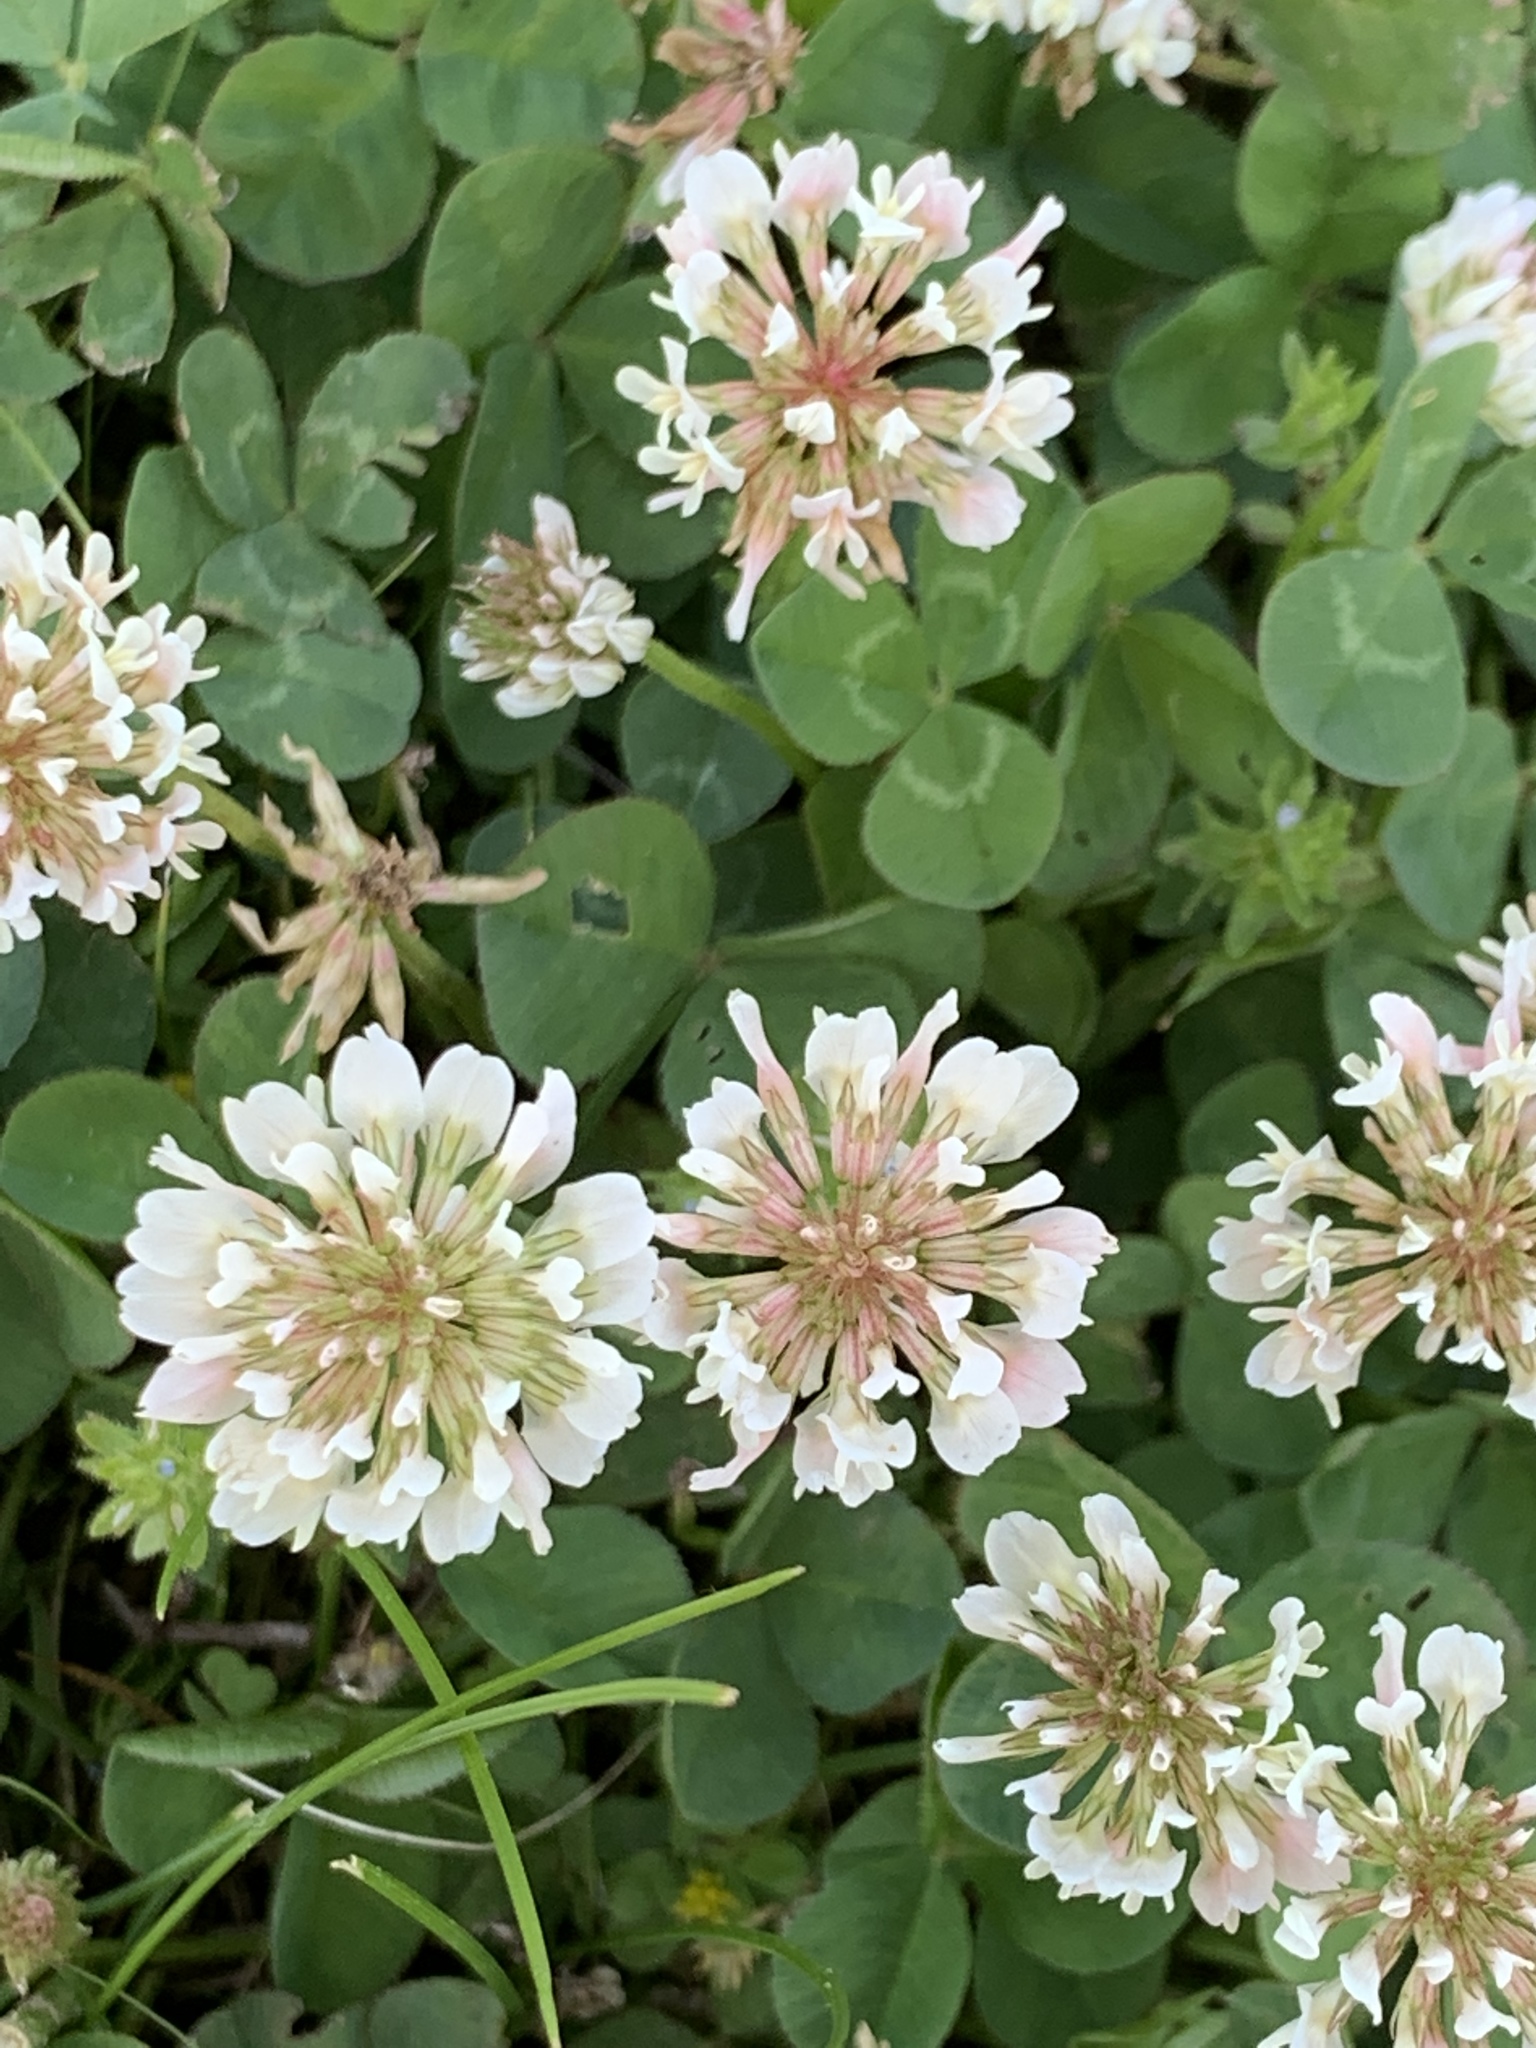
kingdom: Plantae
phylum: Tracheophyta
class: Magnoliopsida
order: Fabales
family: Fabaceae
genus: Trifolium
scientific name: Trifolium repens
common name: White clover
